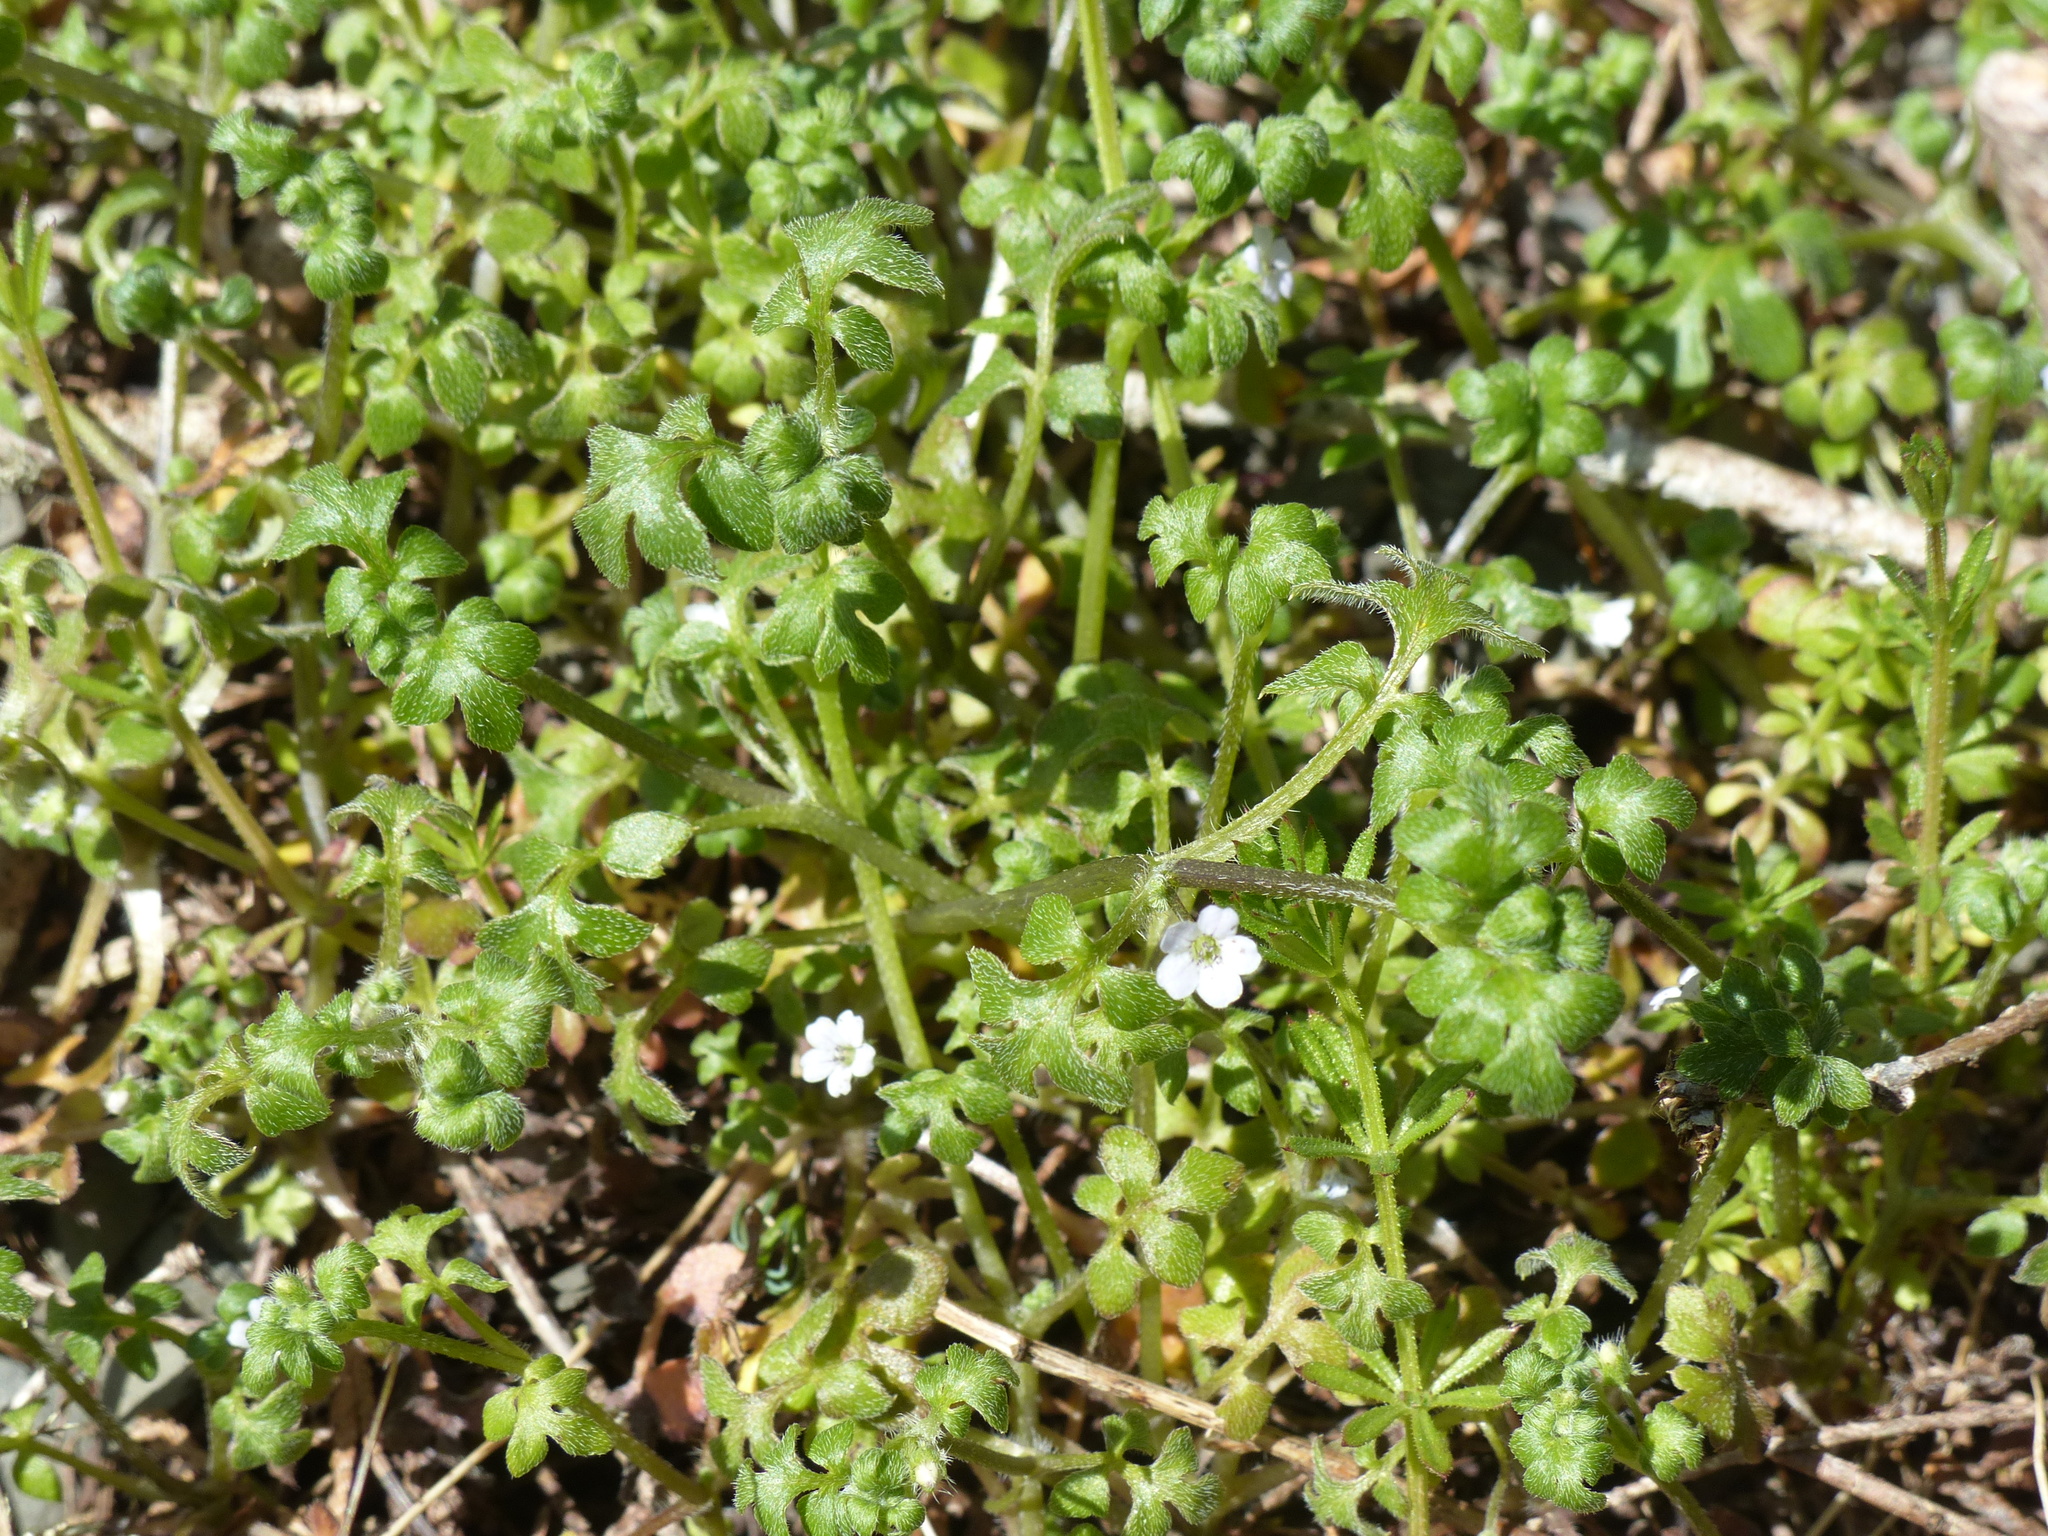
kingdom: Plantae
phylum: Tracheophyta
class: Magnoliopsida
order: Boraginales
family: Hydrophyllaceae
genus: Nemophila
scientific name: Nemophila parviflora
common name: Small-flowered baby-blue-eyes
